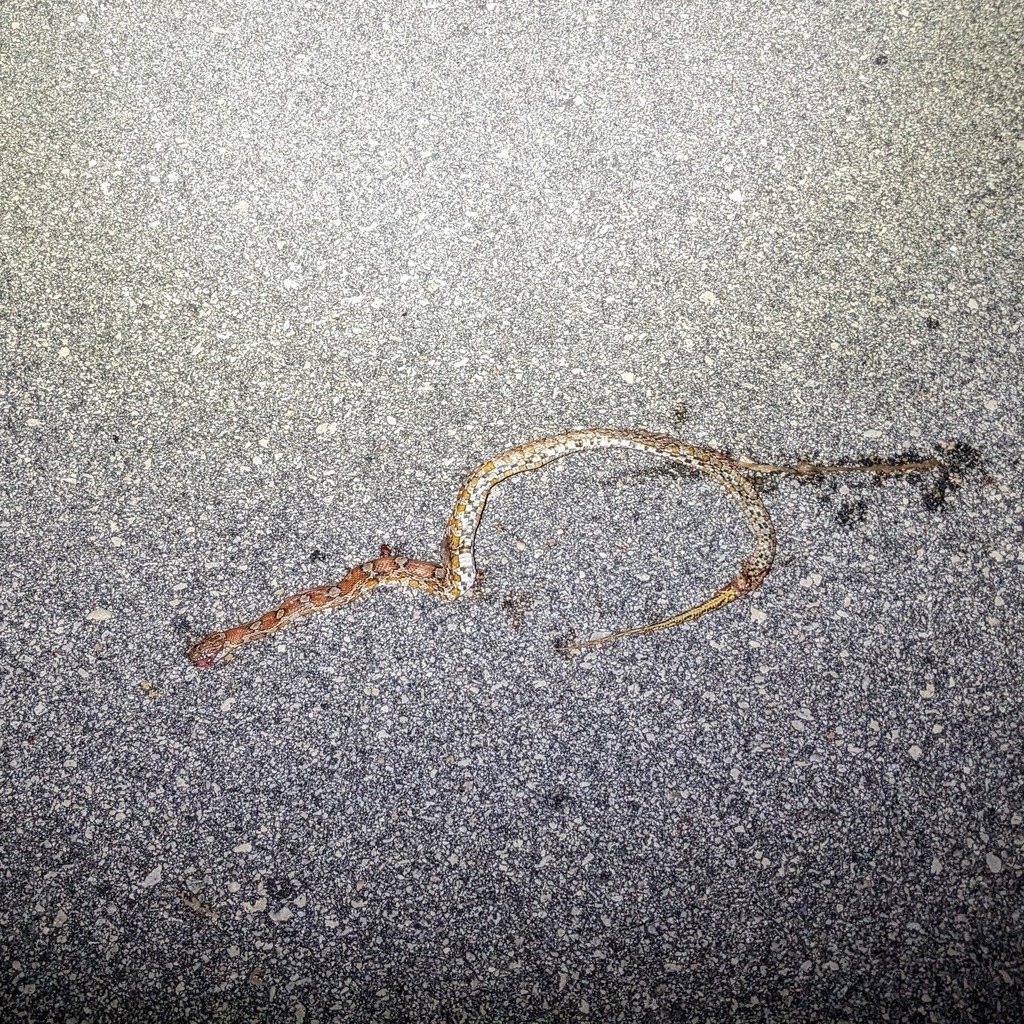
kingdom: Animalia
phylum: Chordata
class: Squamata
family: Colubridae
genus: Pantherophis
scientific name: Pantherophis guttatus
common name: Red cornsnake
